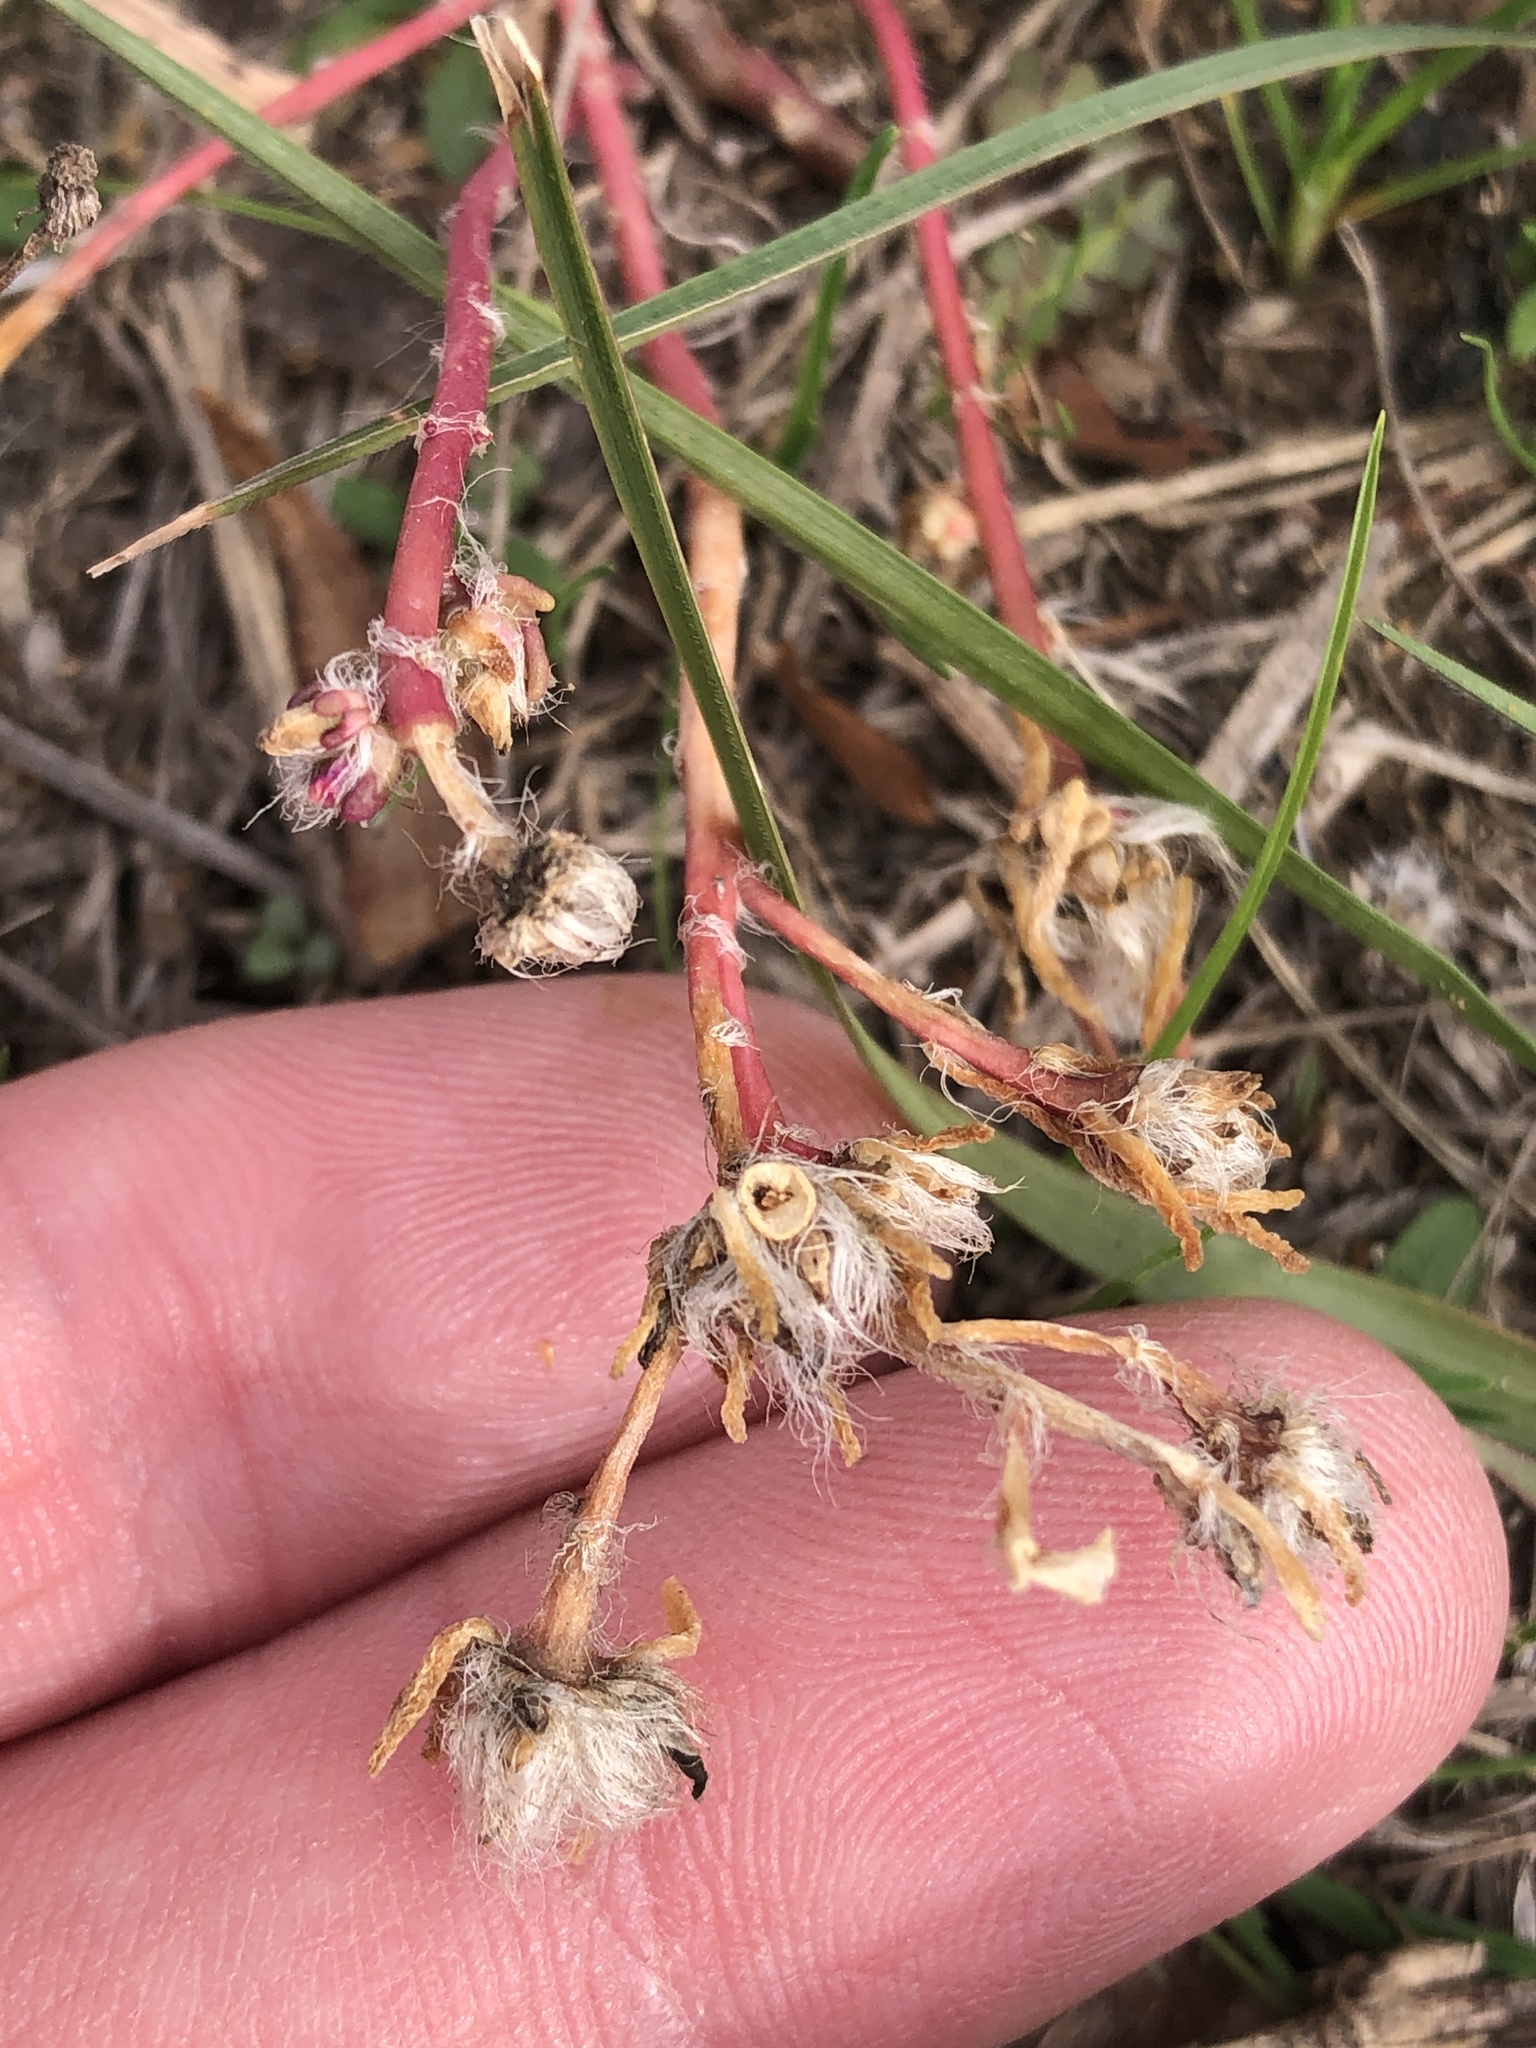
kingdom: Plantae
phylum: Tracheophyta
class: Magnoliopsida
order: Caryophyllales
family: Portulacaceae
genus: Portulaca
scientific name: Portulaca pilosa
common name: Kiss me quick
